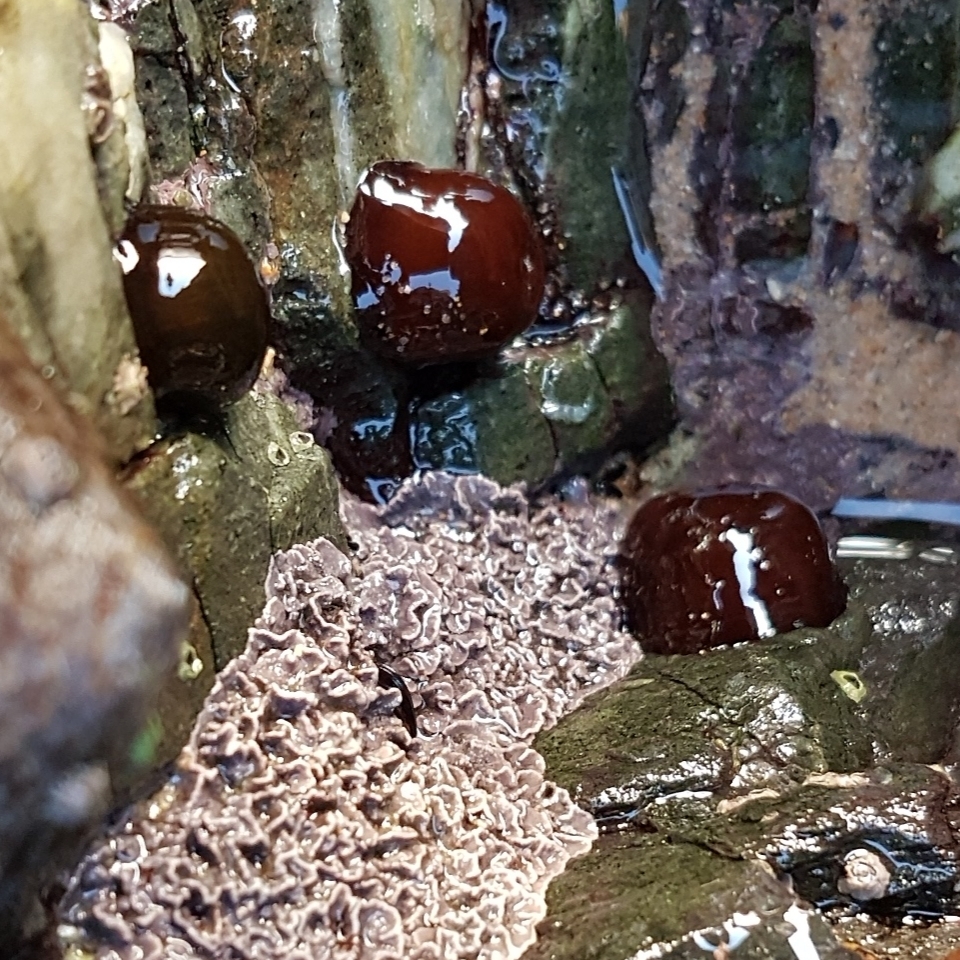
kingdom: Animalia
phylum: Cnidaria
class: Anthozoa
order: Actiniaria
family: Actiniidae
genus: Actinia
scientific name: Actinia equina
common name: Beadlet anemone
